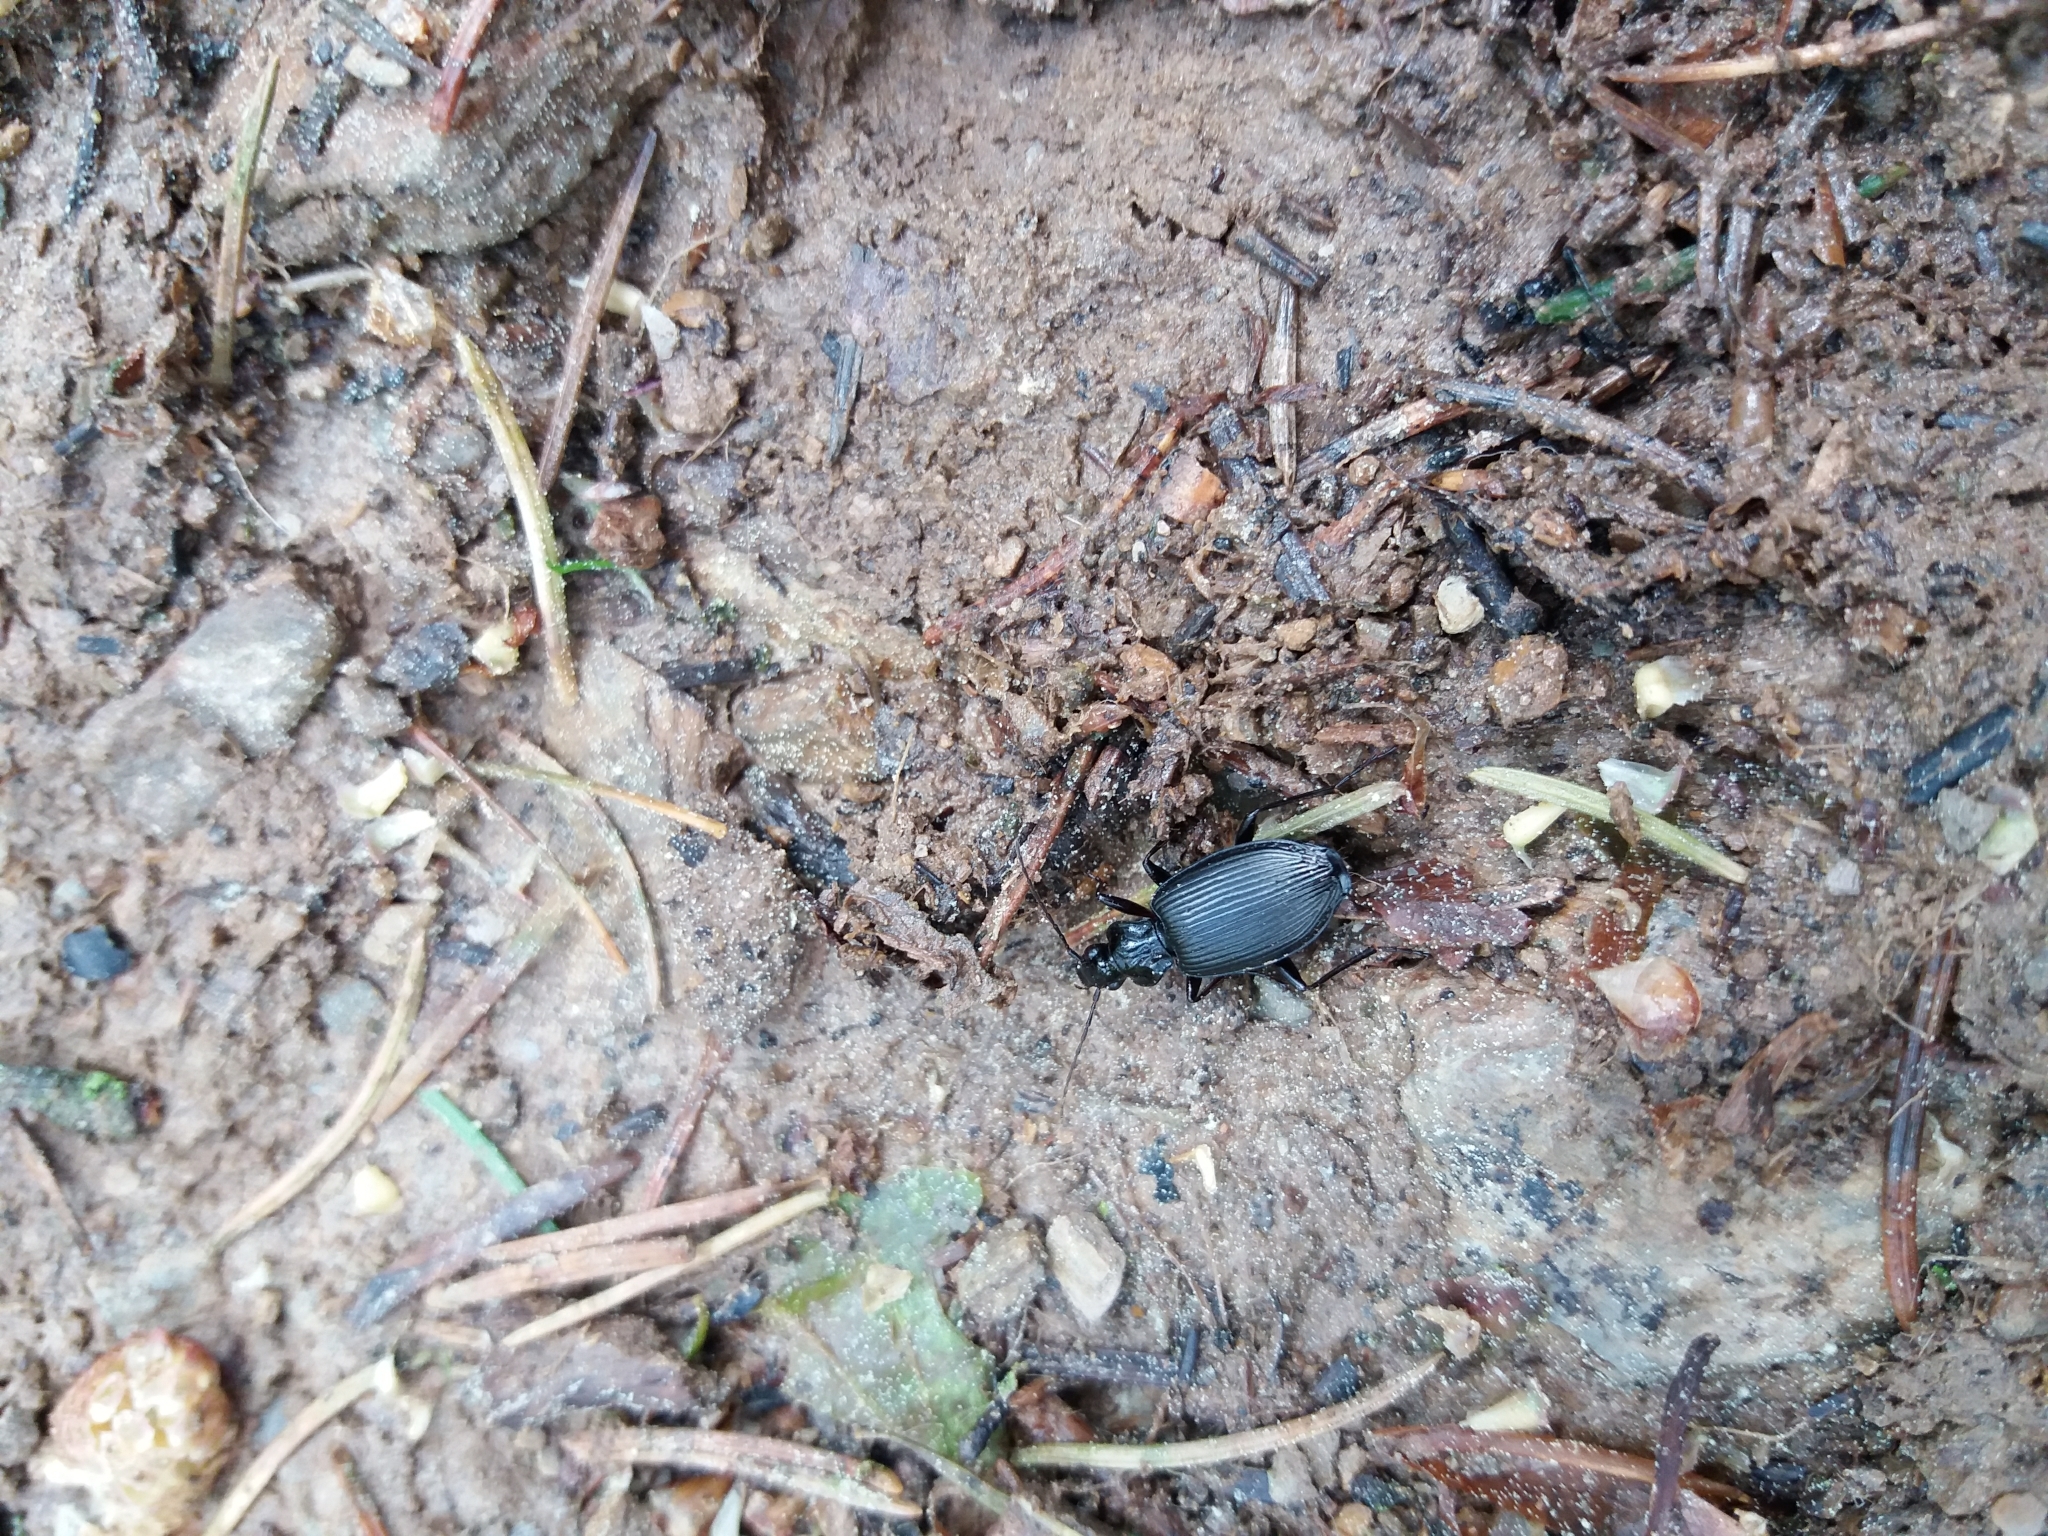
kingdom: Animalia
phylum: Arthropoda
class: Insecta
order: Coleoptera
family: Carabidae
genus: Platynus
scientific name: Platynus assimilis
